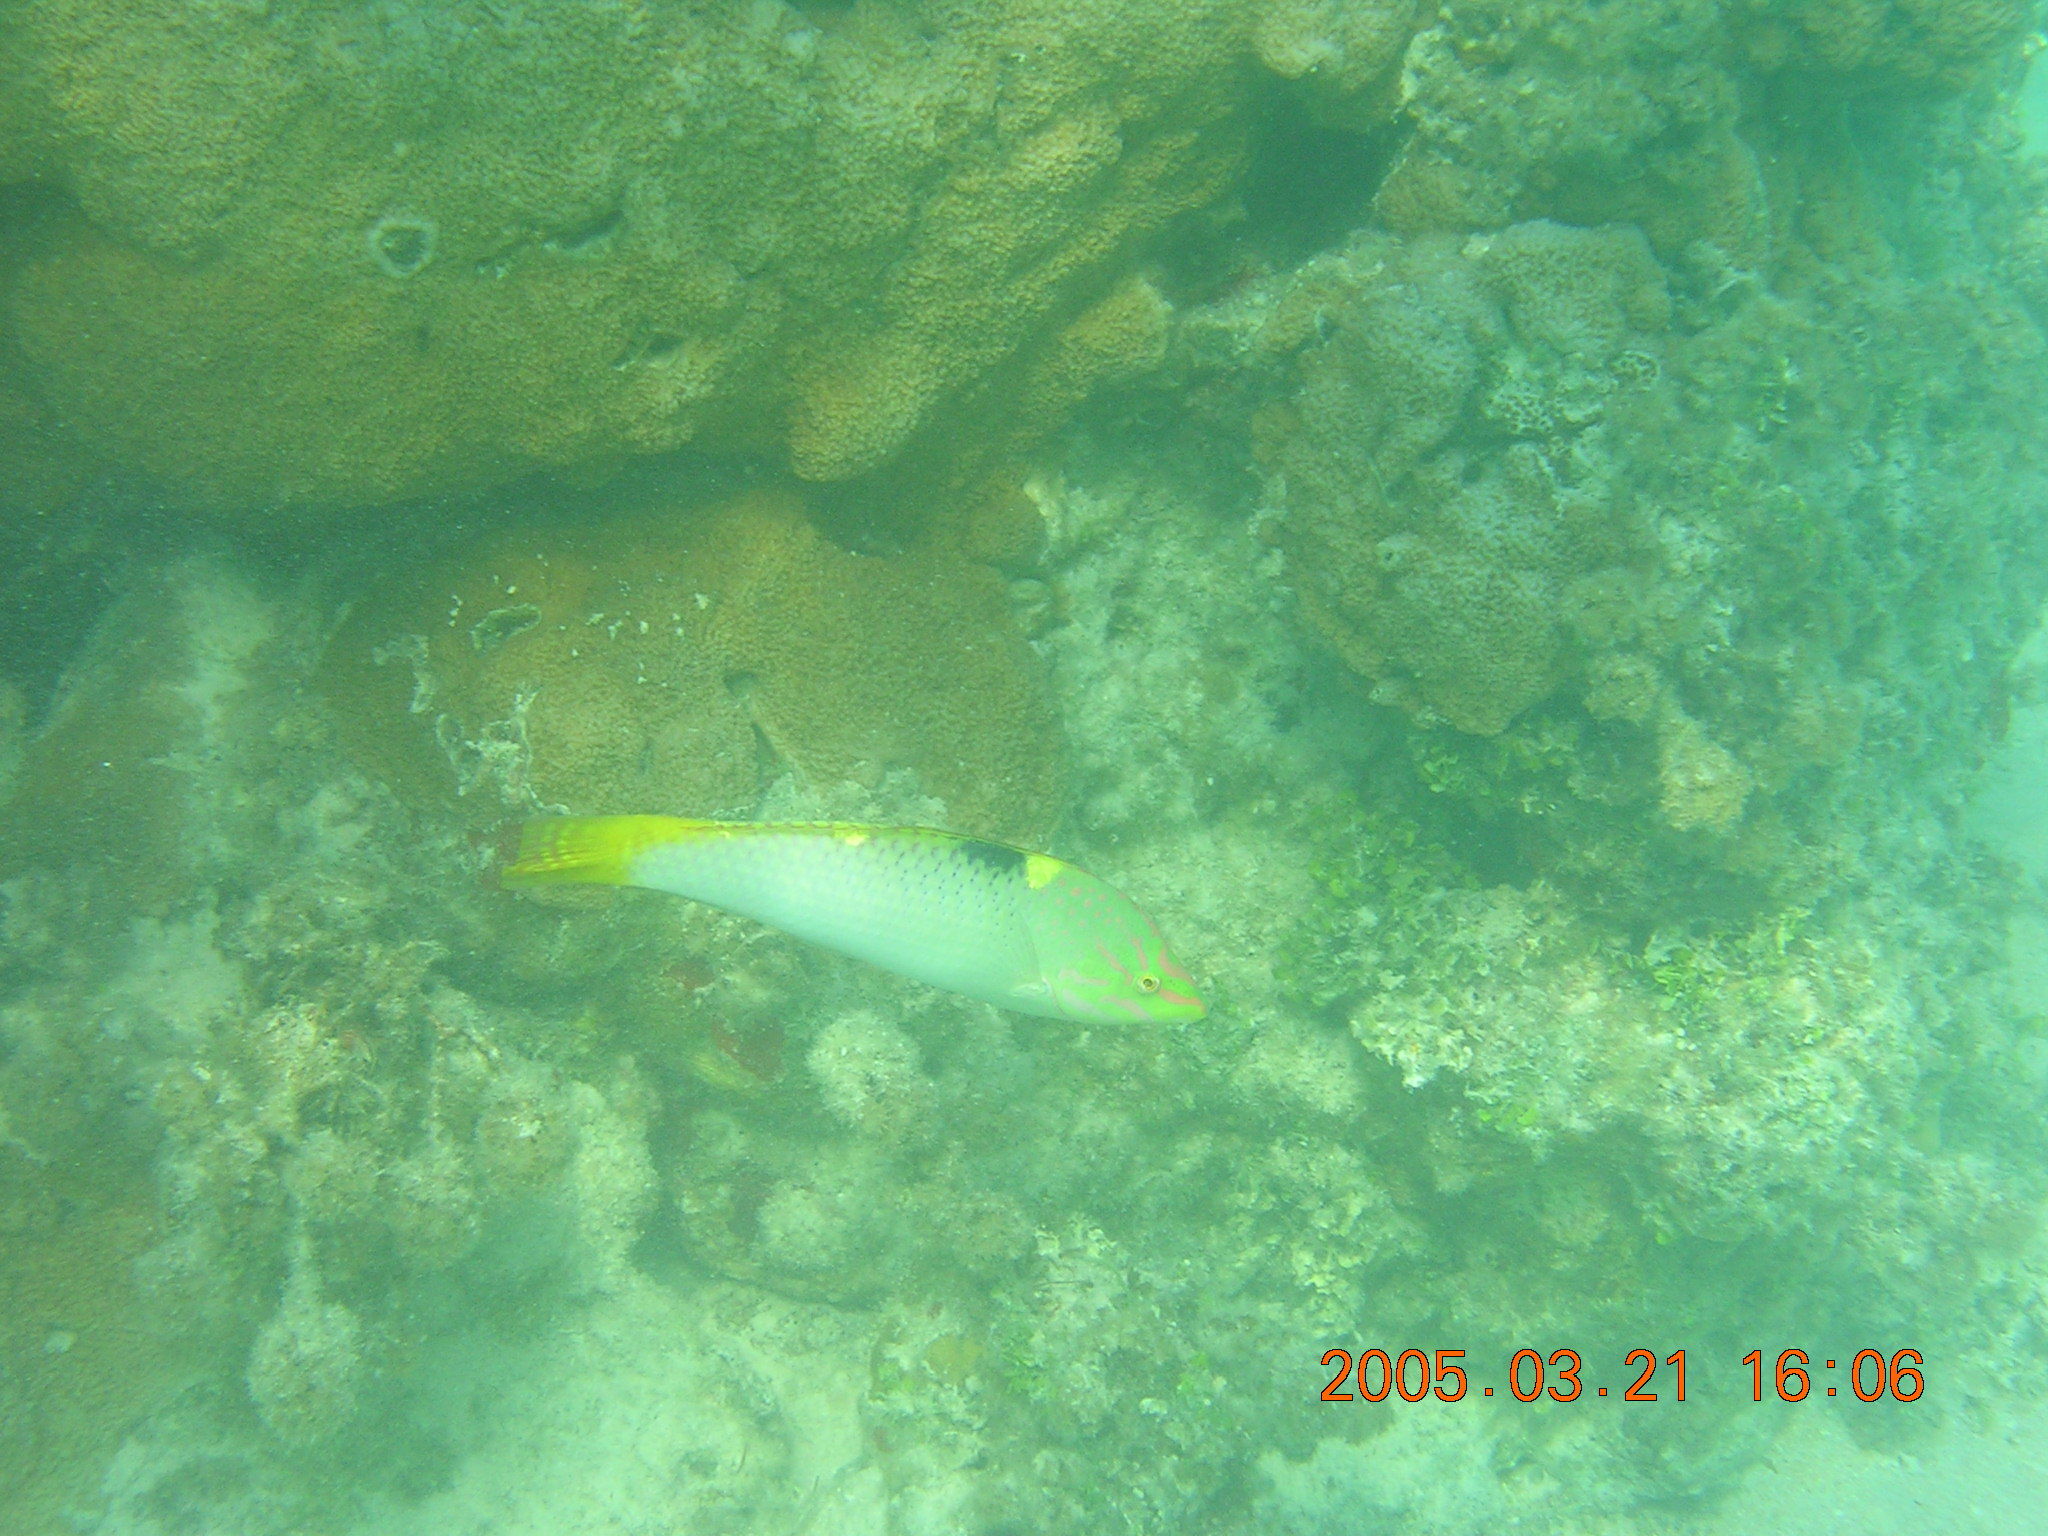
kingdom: Animalia
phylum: Chordata
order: Perciformes
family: Labridae
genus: Halichoeres
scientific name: Halichoeres hortulanus
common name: Checkerboard wrasse
